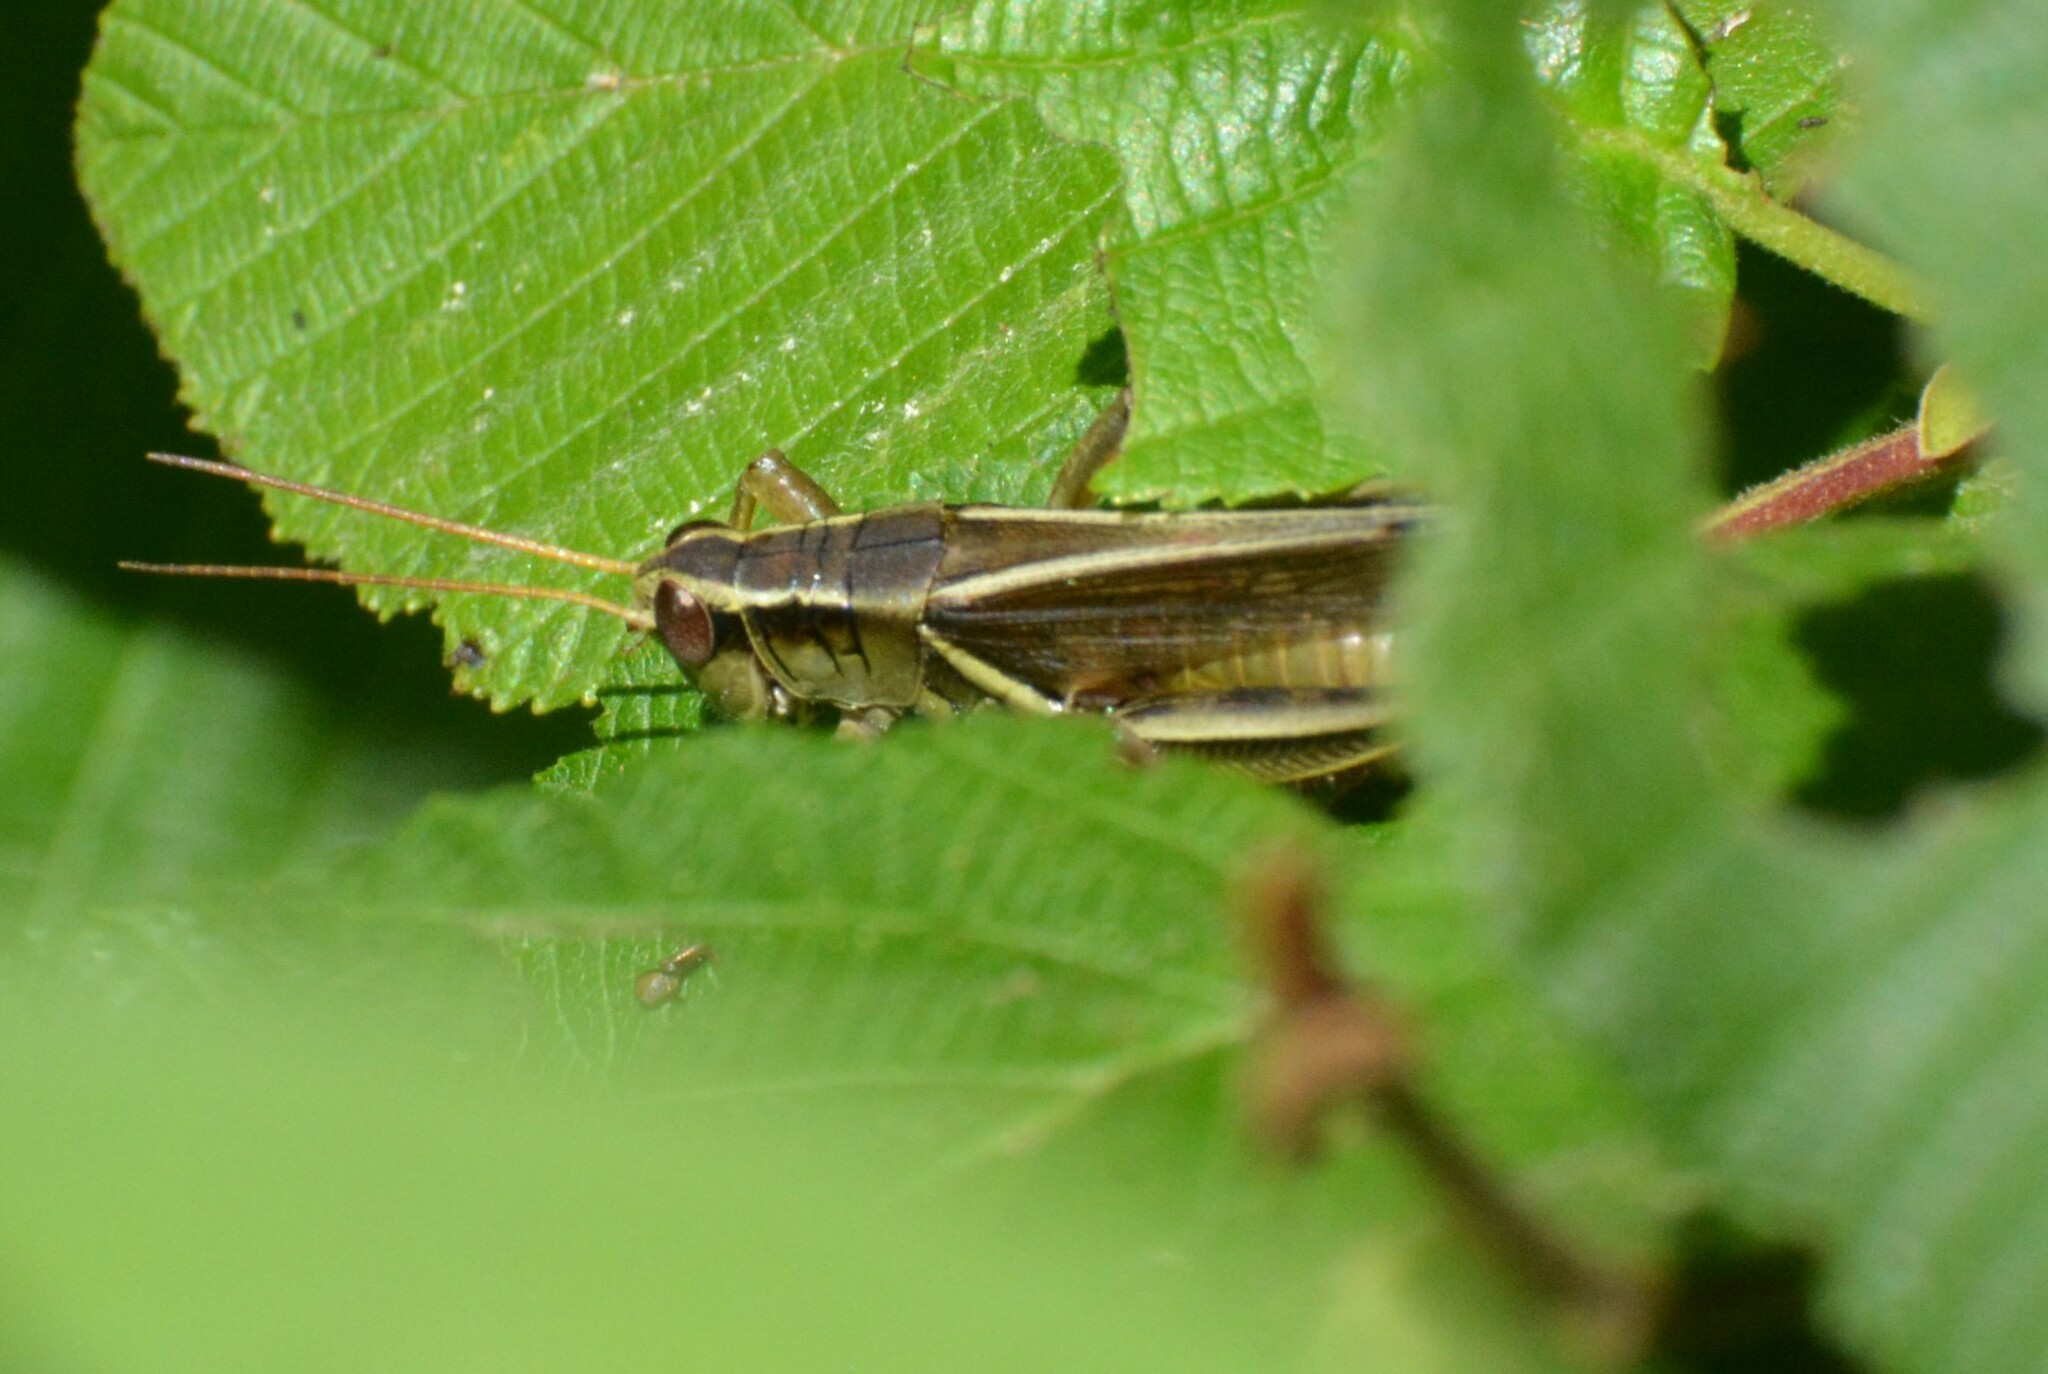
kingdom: Animalia
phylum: Arthropoda
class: Insecta
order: Orthoptera
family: Acrididae
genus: Melanoplus
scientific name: Melanoplus bivittatus
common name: Two-striped grasshopper
